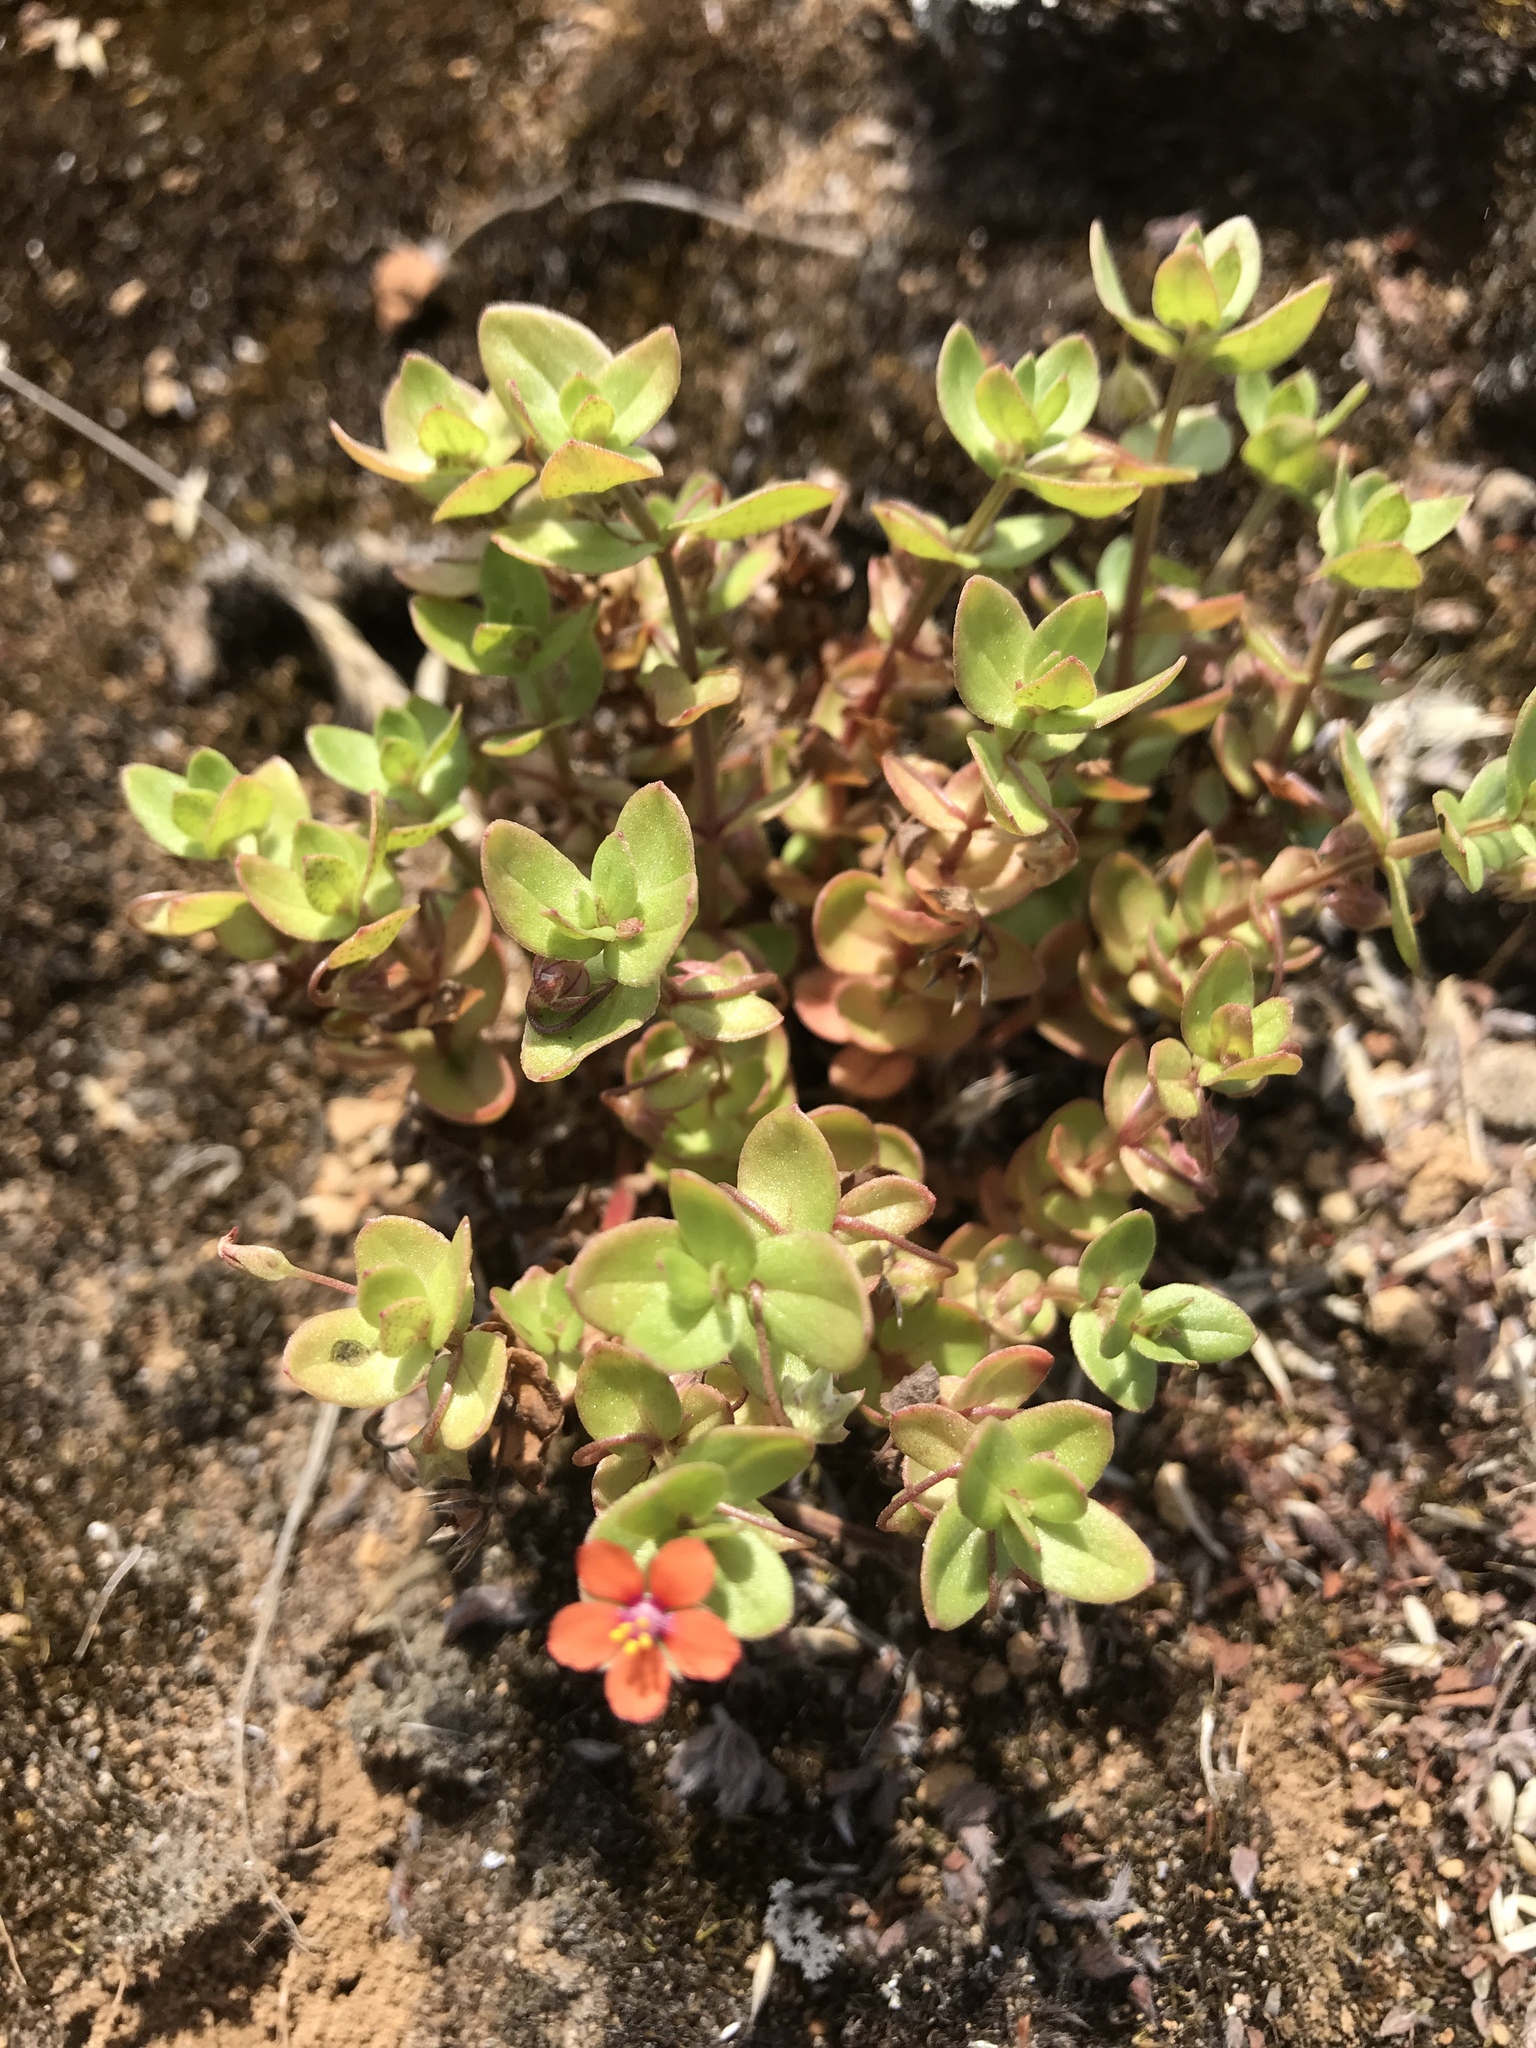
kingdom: Plantae
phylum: Tracheophyta
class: Magnoliopsida
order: Ericales
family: Primulaceae
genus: Lysimachia
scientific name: Lysimachia arvensis
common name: Scarlet pimpernel
